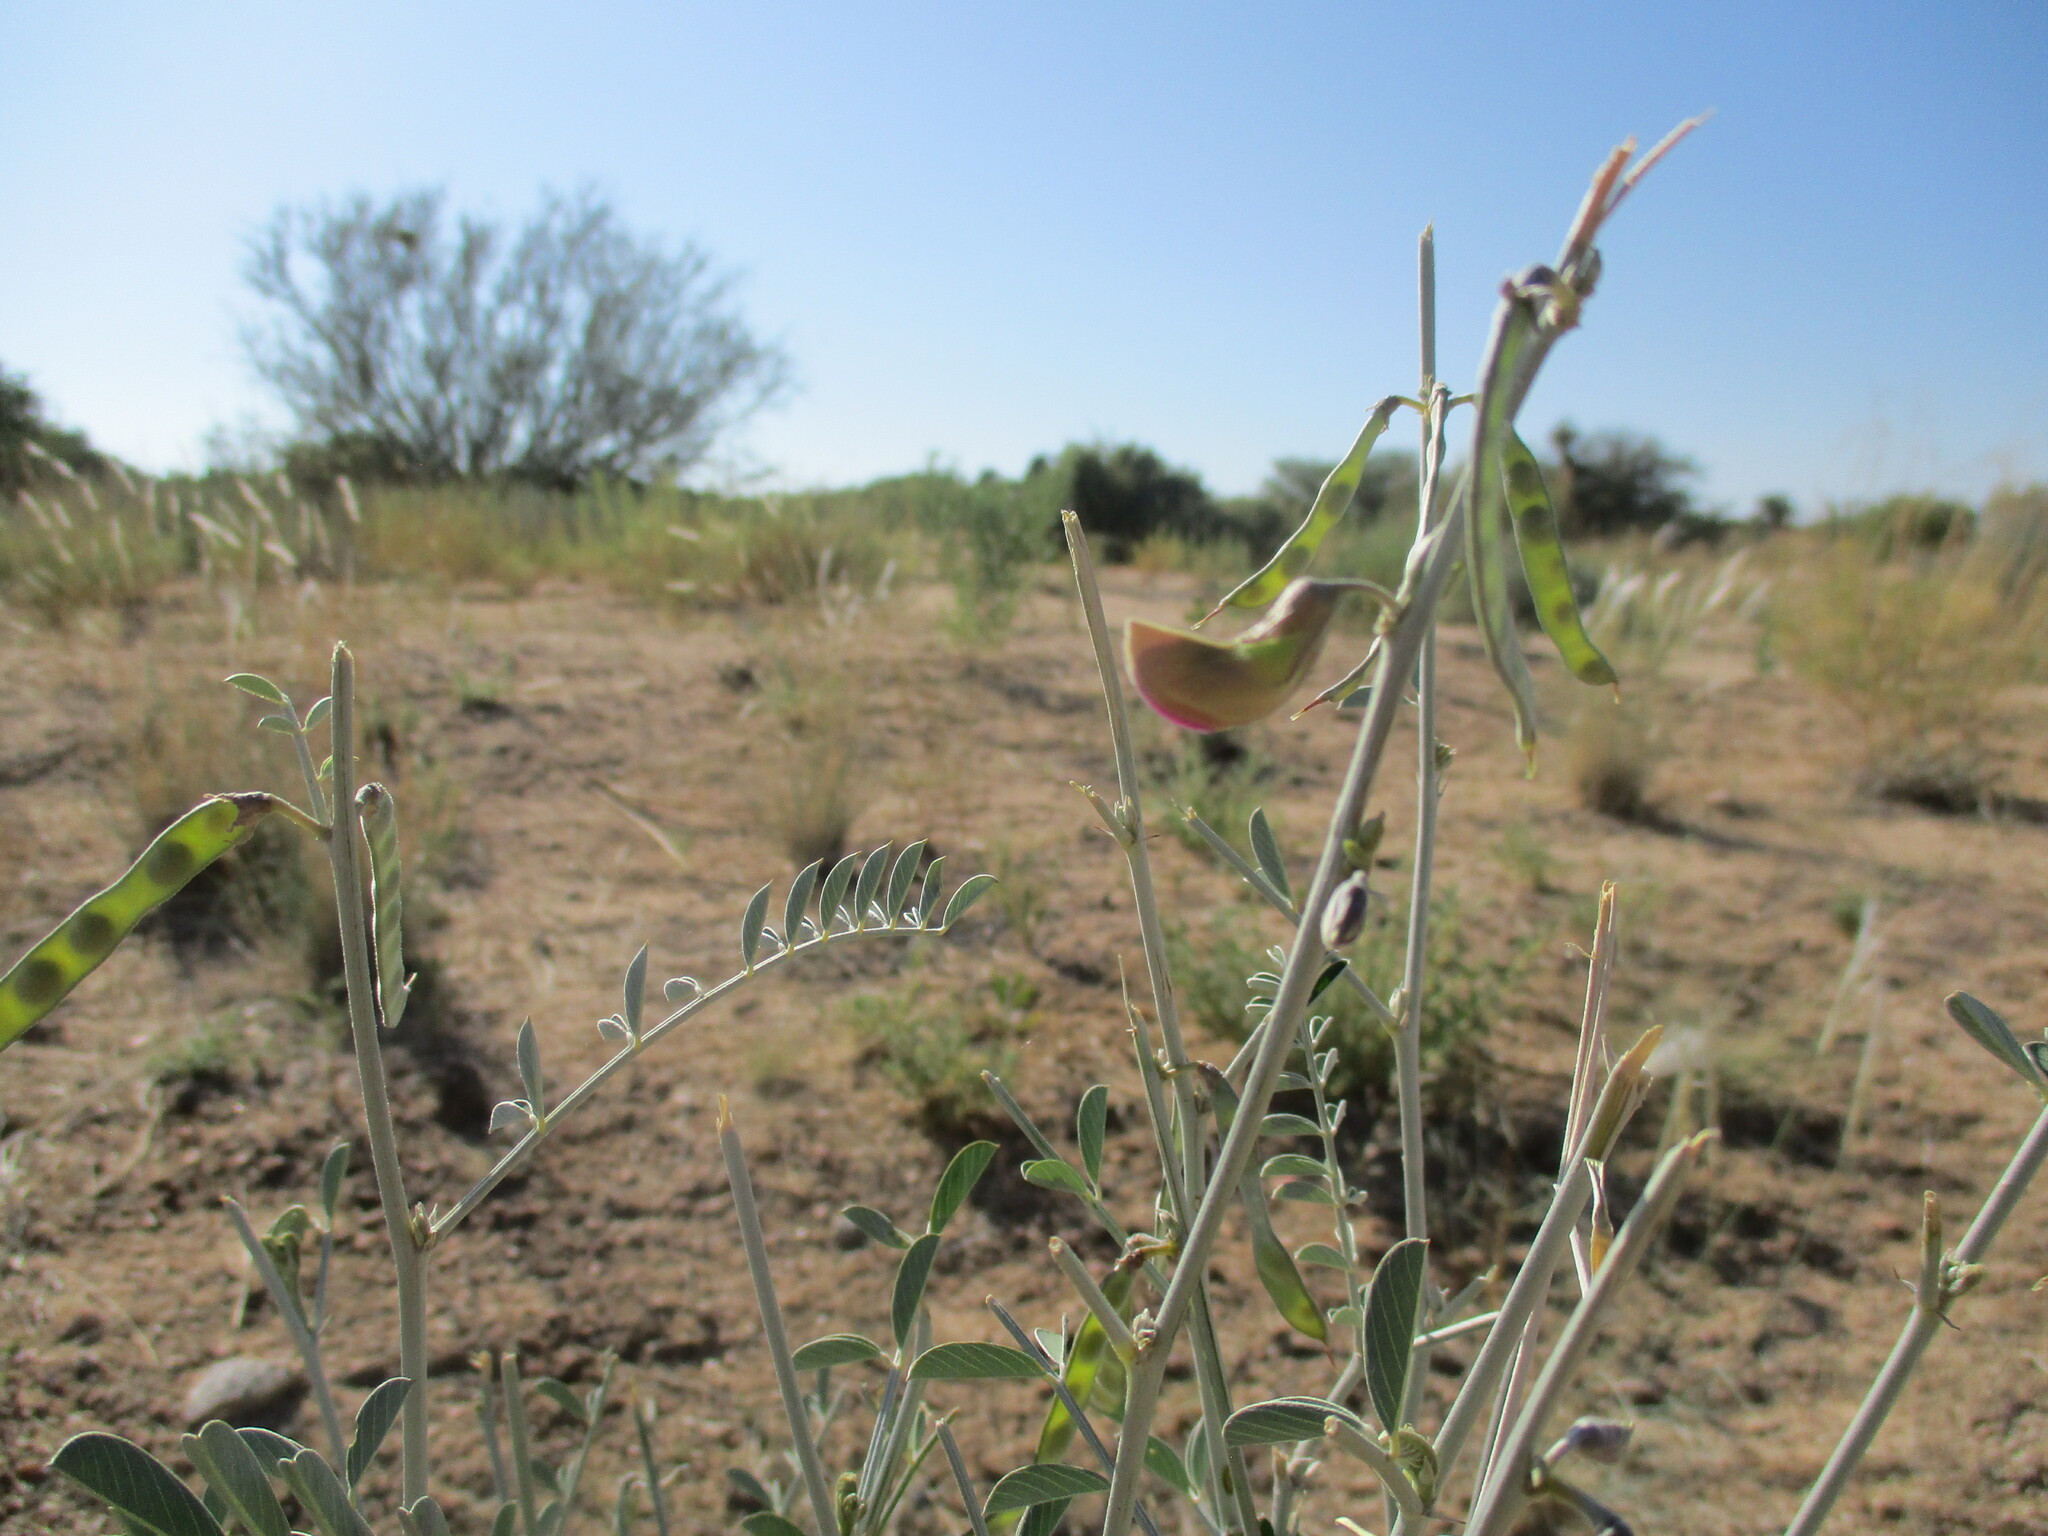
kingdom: Plantae
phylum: Tracheophyta
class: Magnoliopsida
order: Fabales
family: Fabaceae
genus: Tephrosia
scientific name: Tephrosia oxygona
